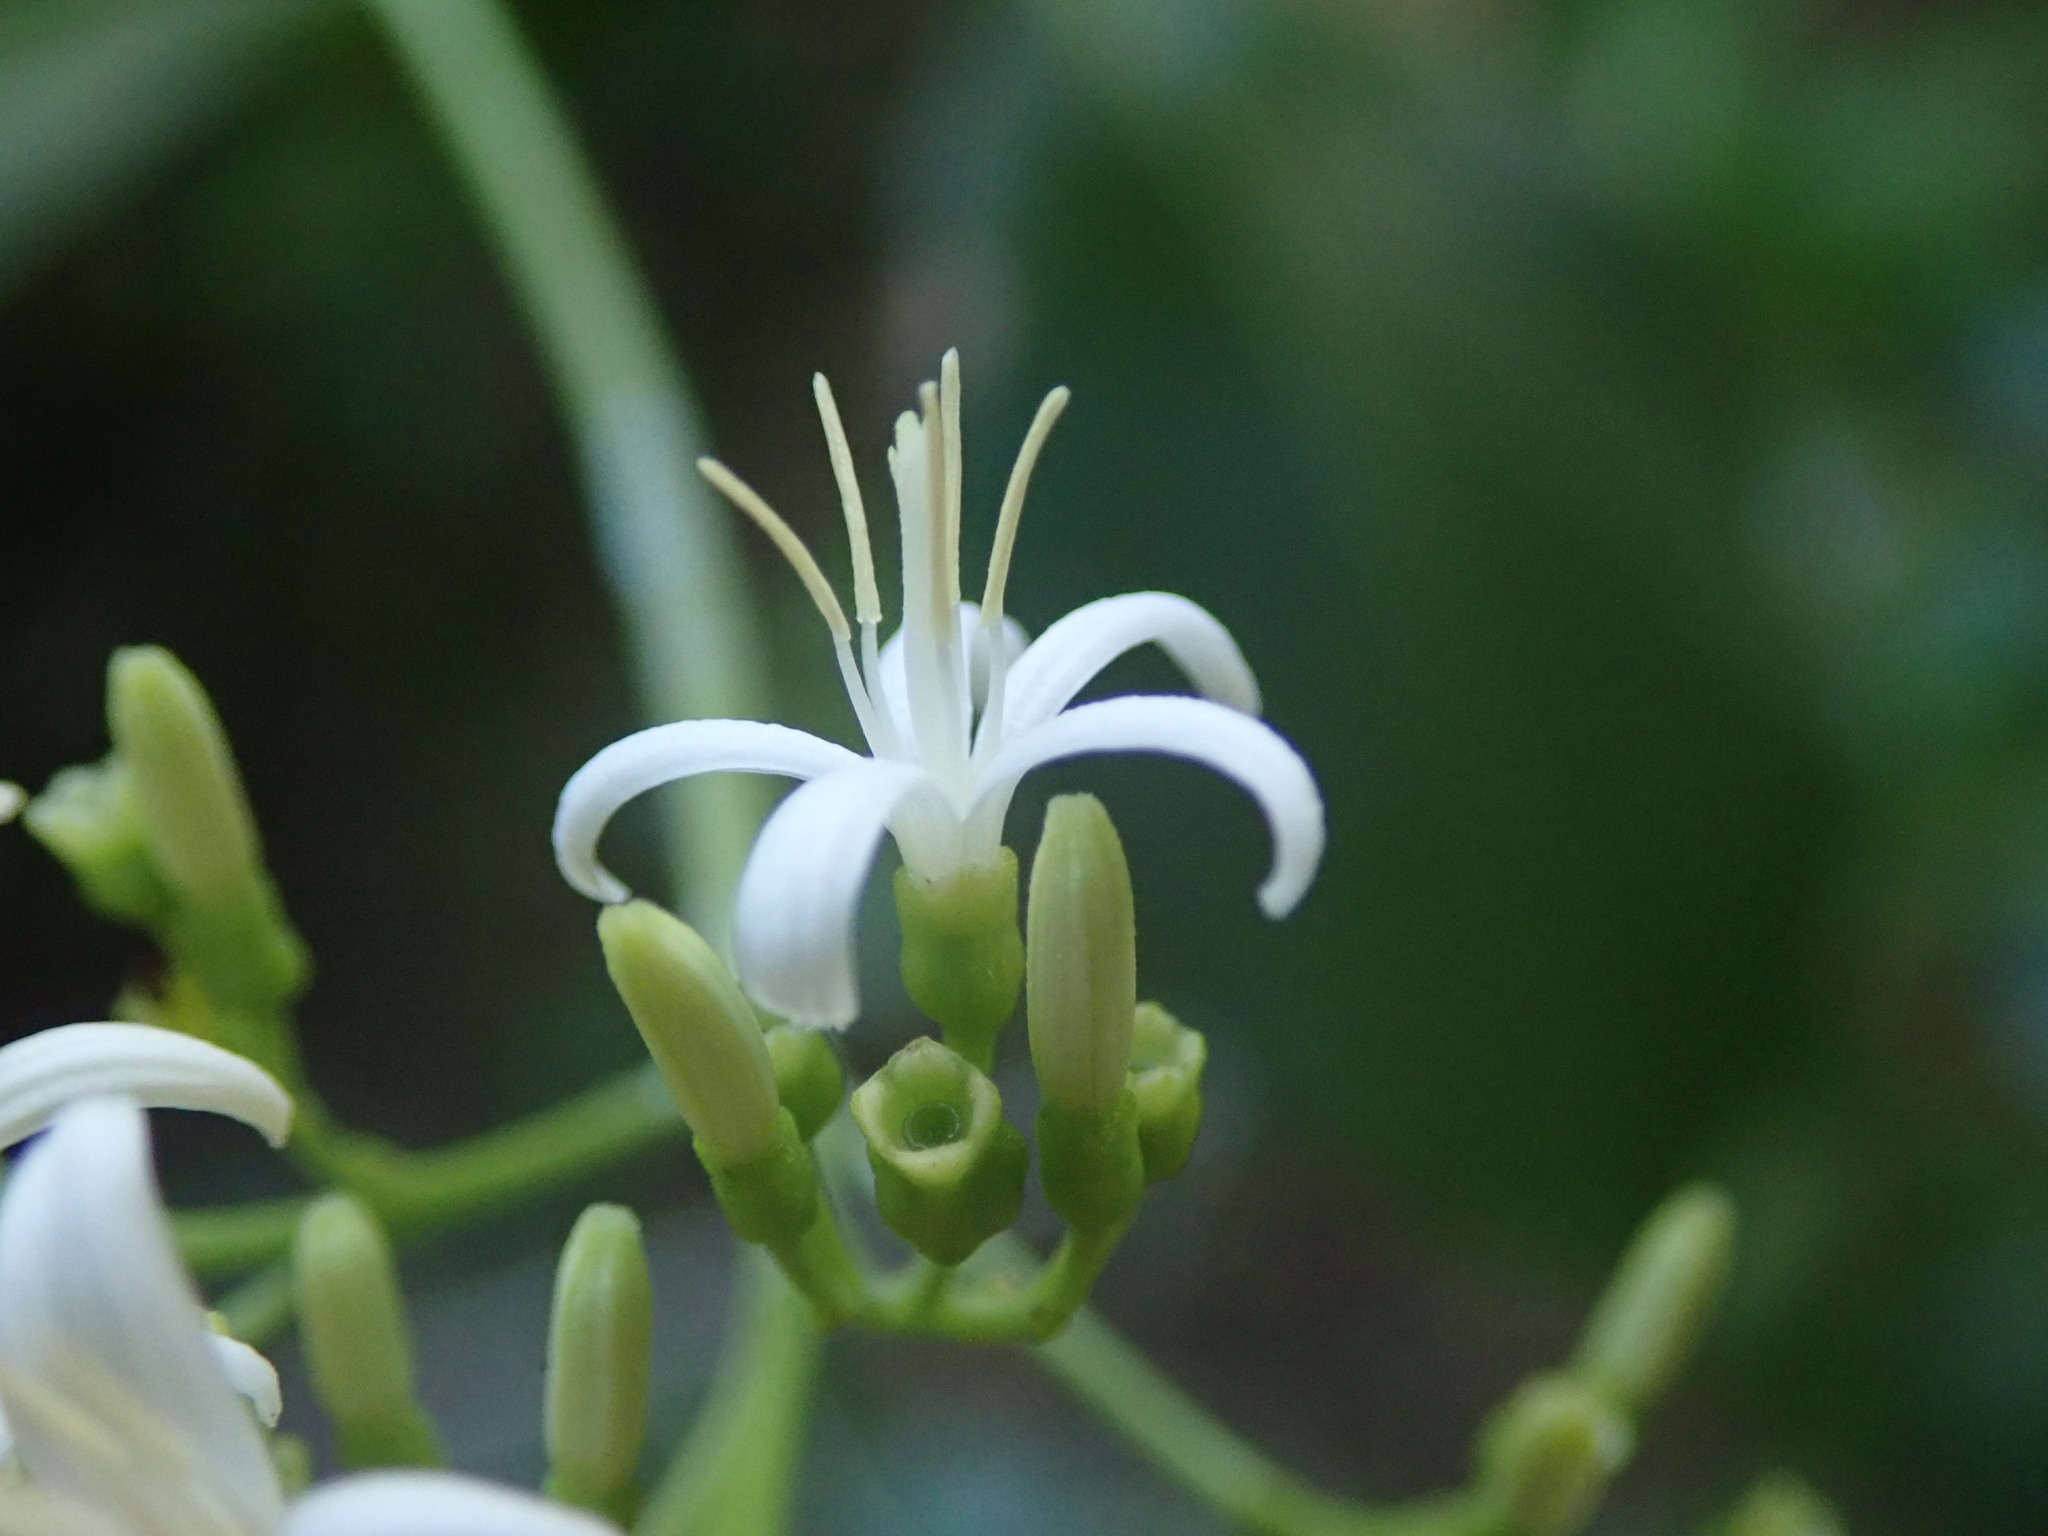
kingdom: Plantae
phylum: Tracheophyta
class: Magnoliopsida
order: Gentianales
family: Rubiaceae
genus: Erithalis
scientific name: Erithalis fruticosa
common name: Candlewood
